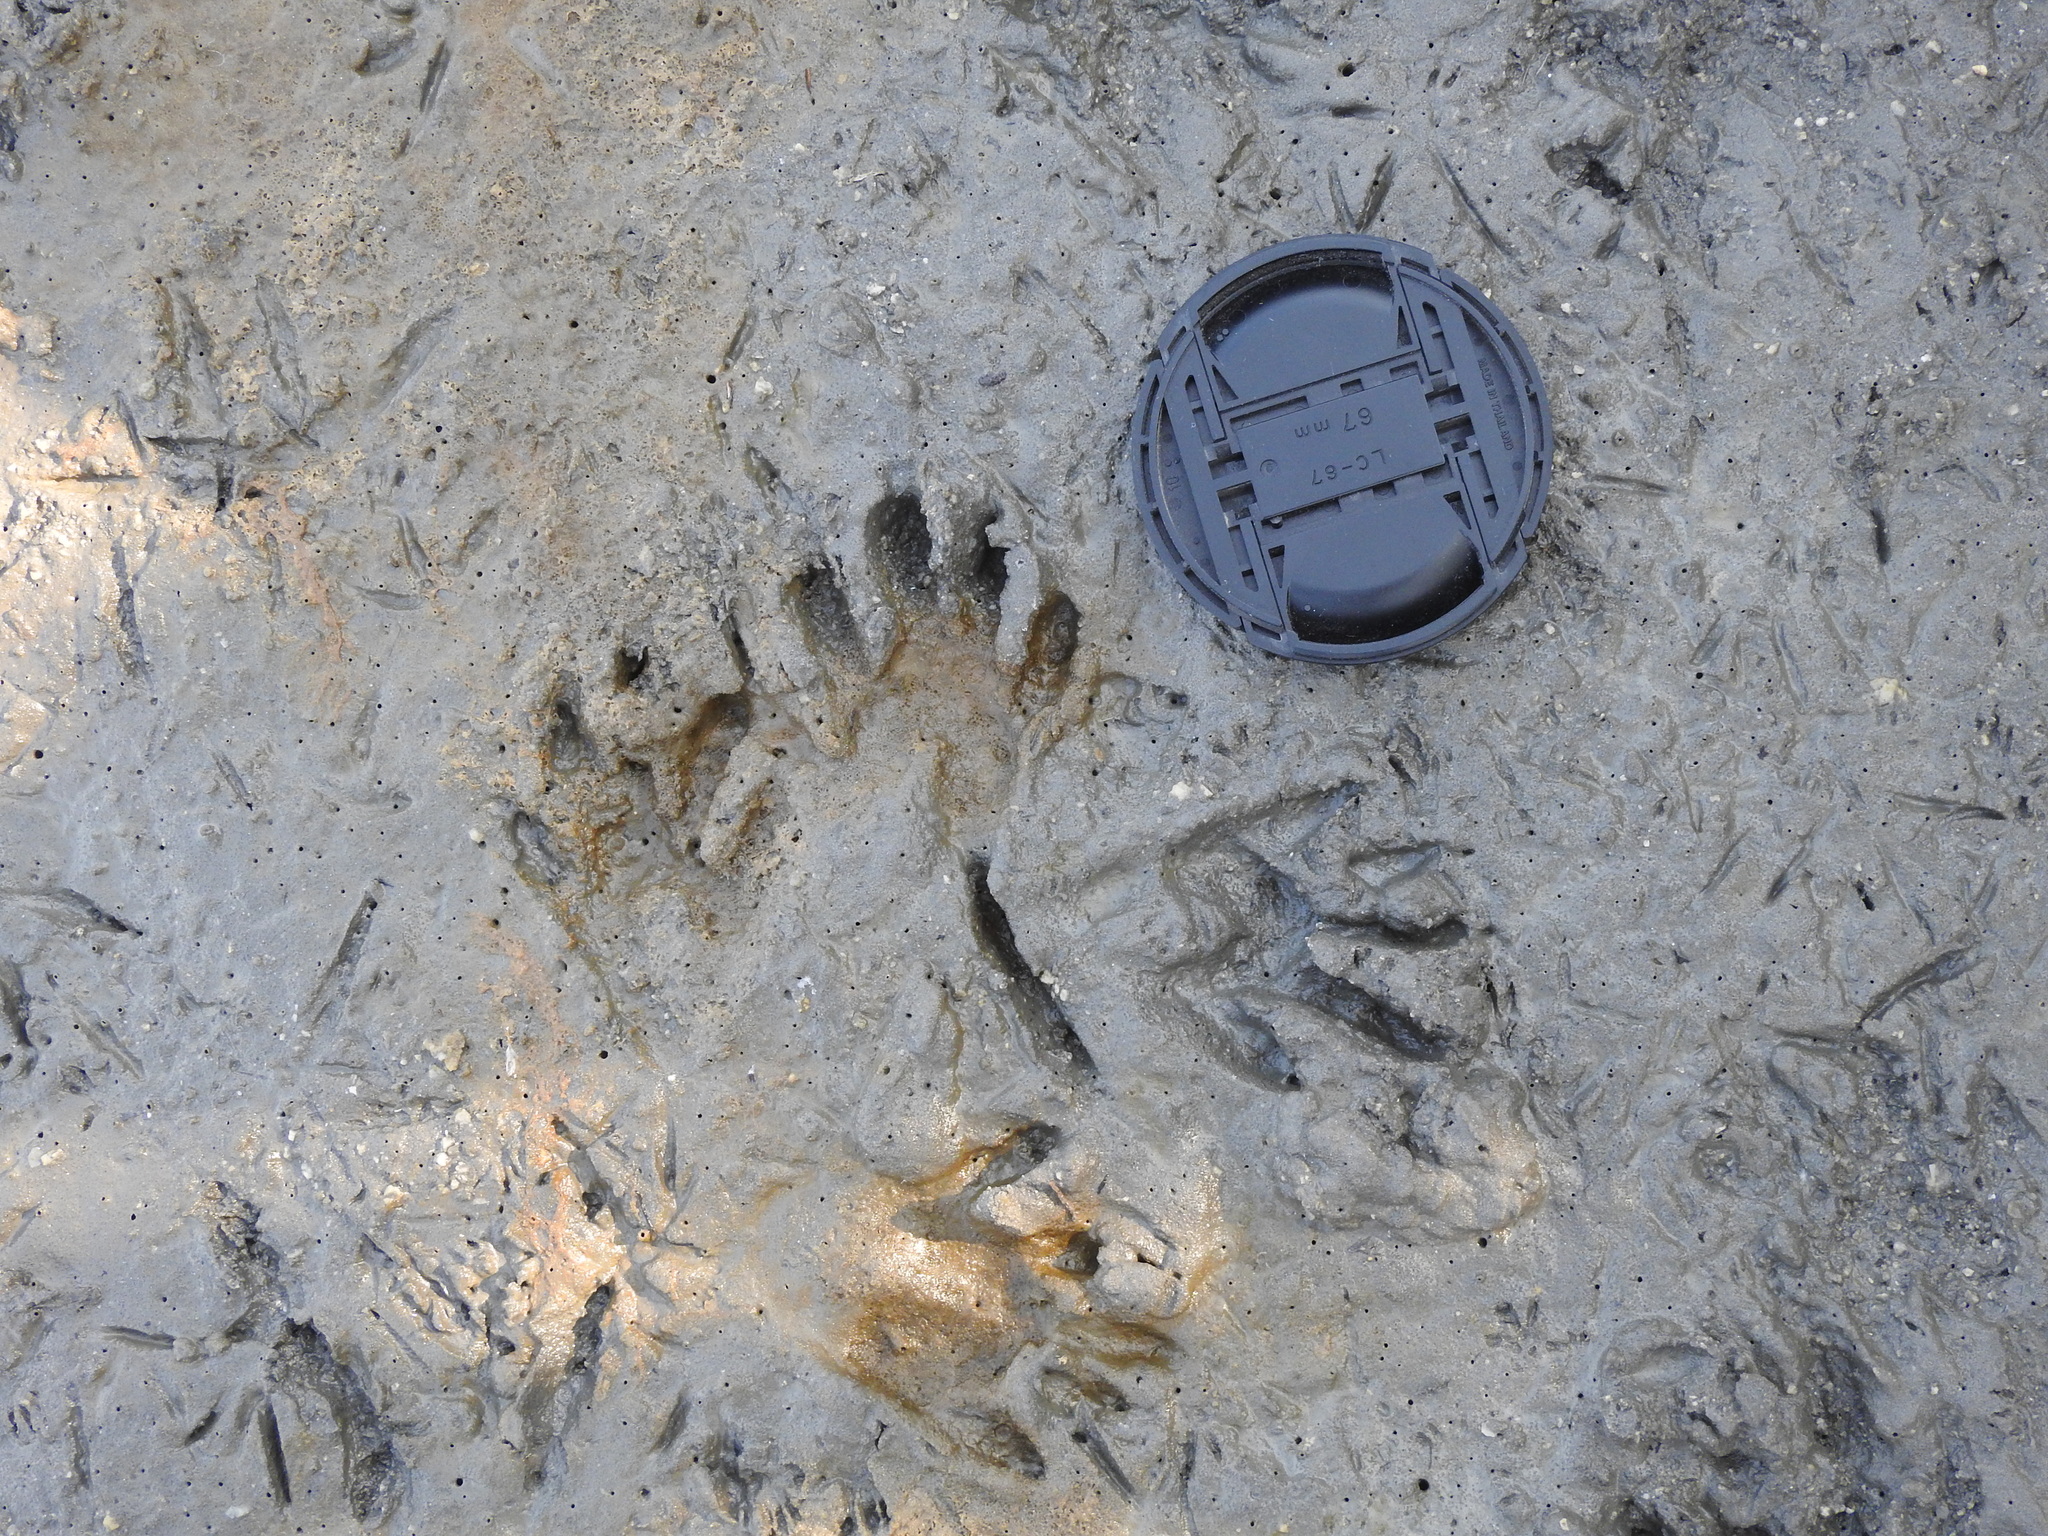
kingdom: Animalia
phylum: Chordata
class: Mammalia
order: Carnivora
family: Procyonidae
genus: Procyon
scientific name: Procyon lotor
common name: Raccoon
